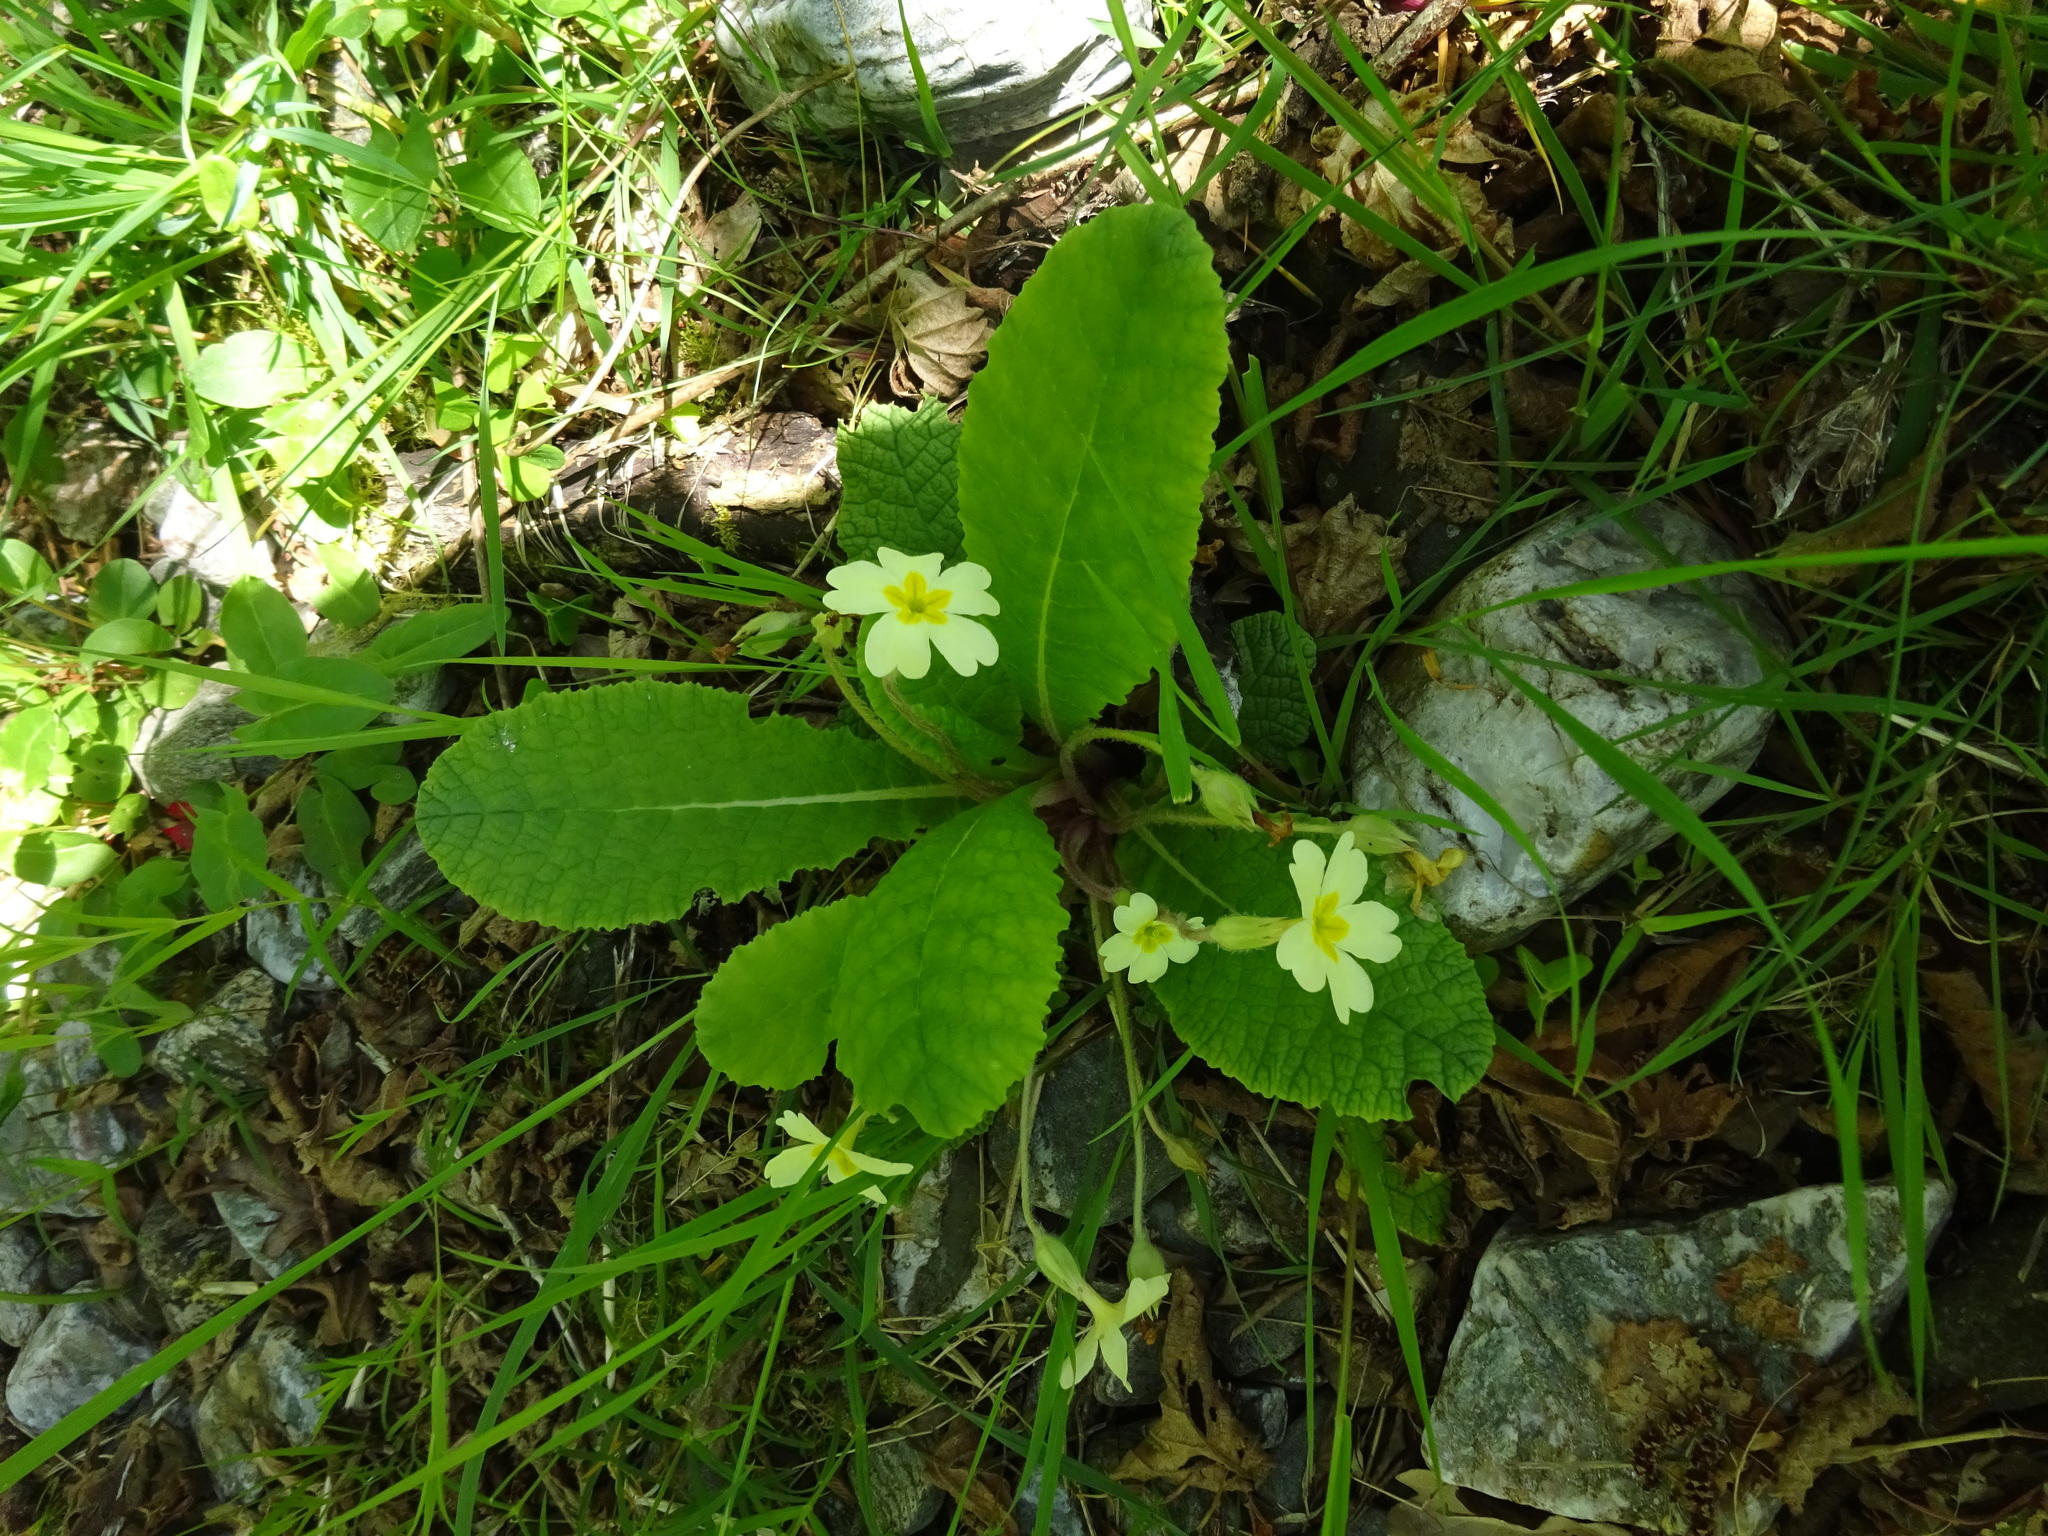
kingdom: Plantae
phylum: Tracheophyta
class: Magnoliopsida
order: Ericales
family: Primulaceae
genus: Primula
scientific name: Primula vulgaris
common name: Primrose
